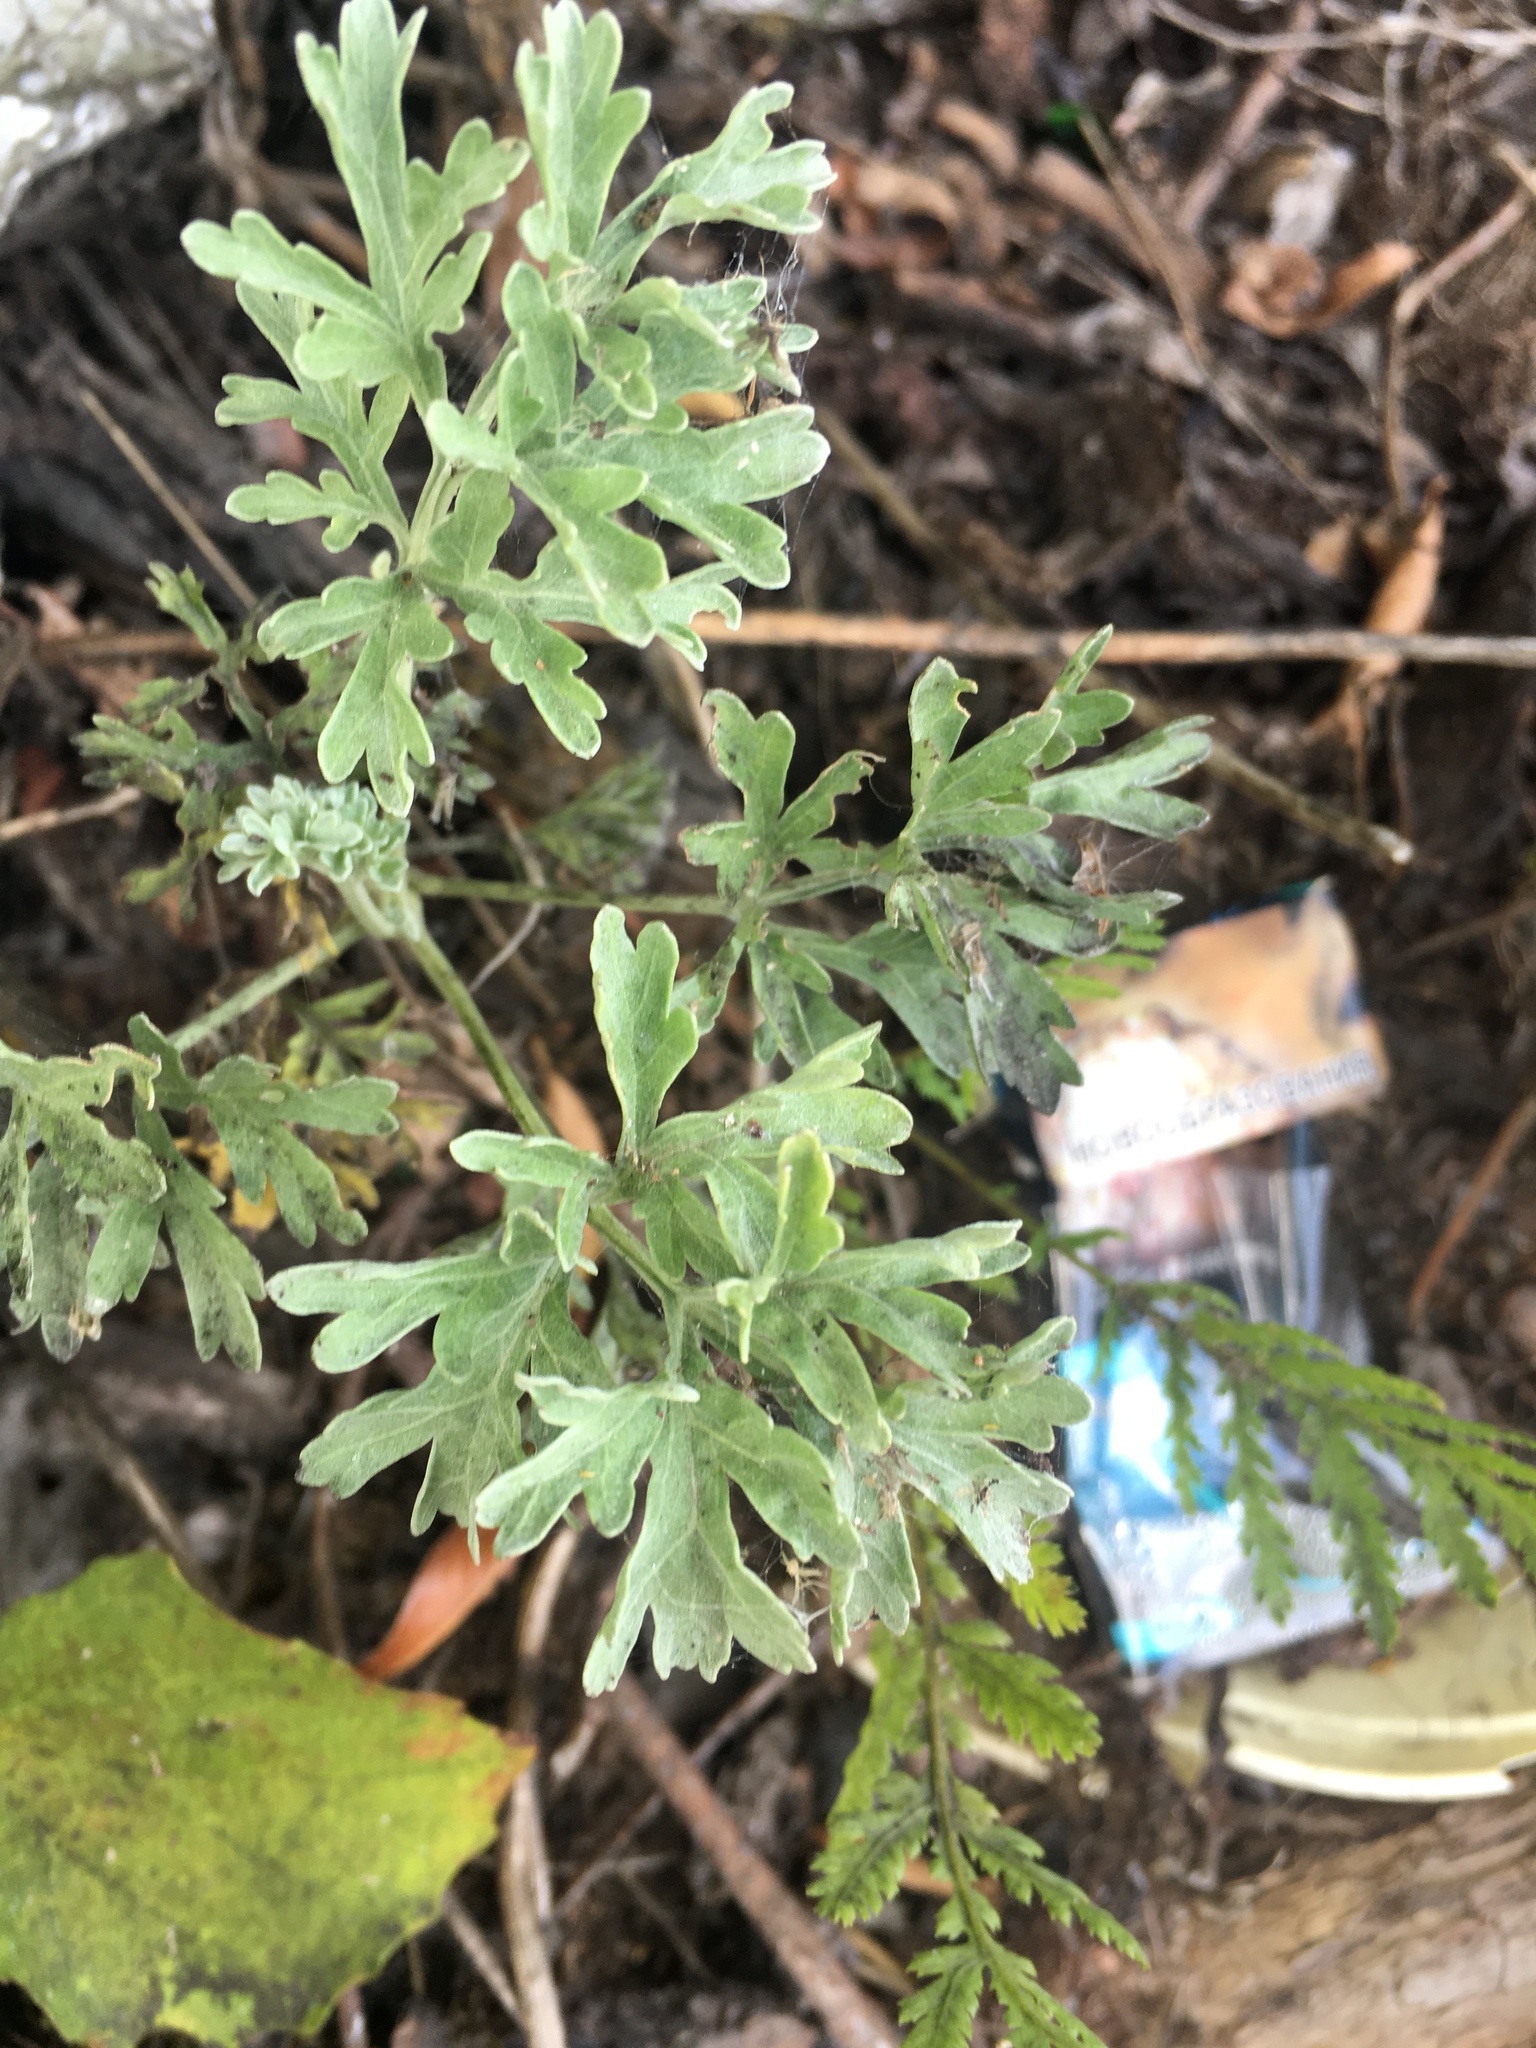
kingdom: Plantae
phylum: Tracheophyta
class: Magnoliopsida
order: Asterales
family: Asteraceae
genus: Artemisia
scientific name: Artemisia absinthium
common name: Wormwood
